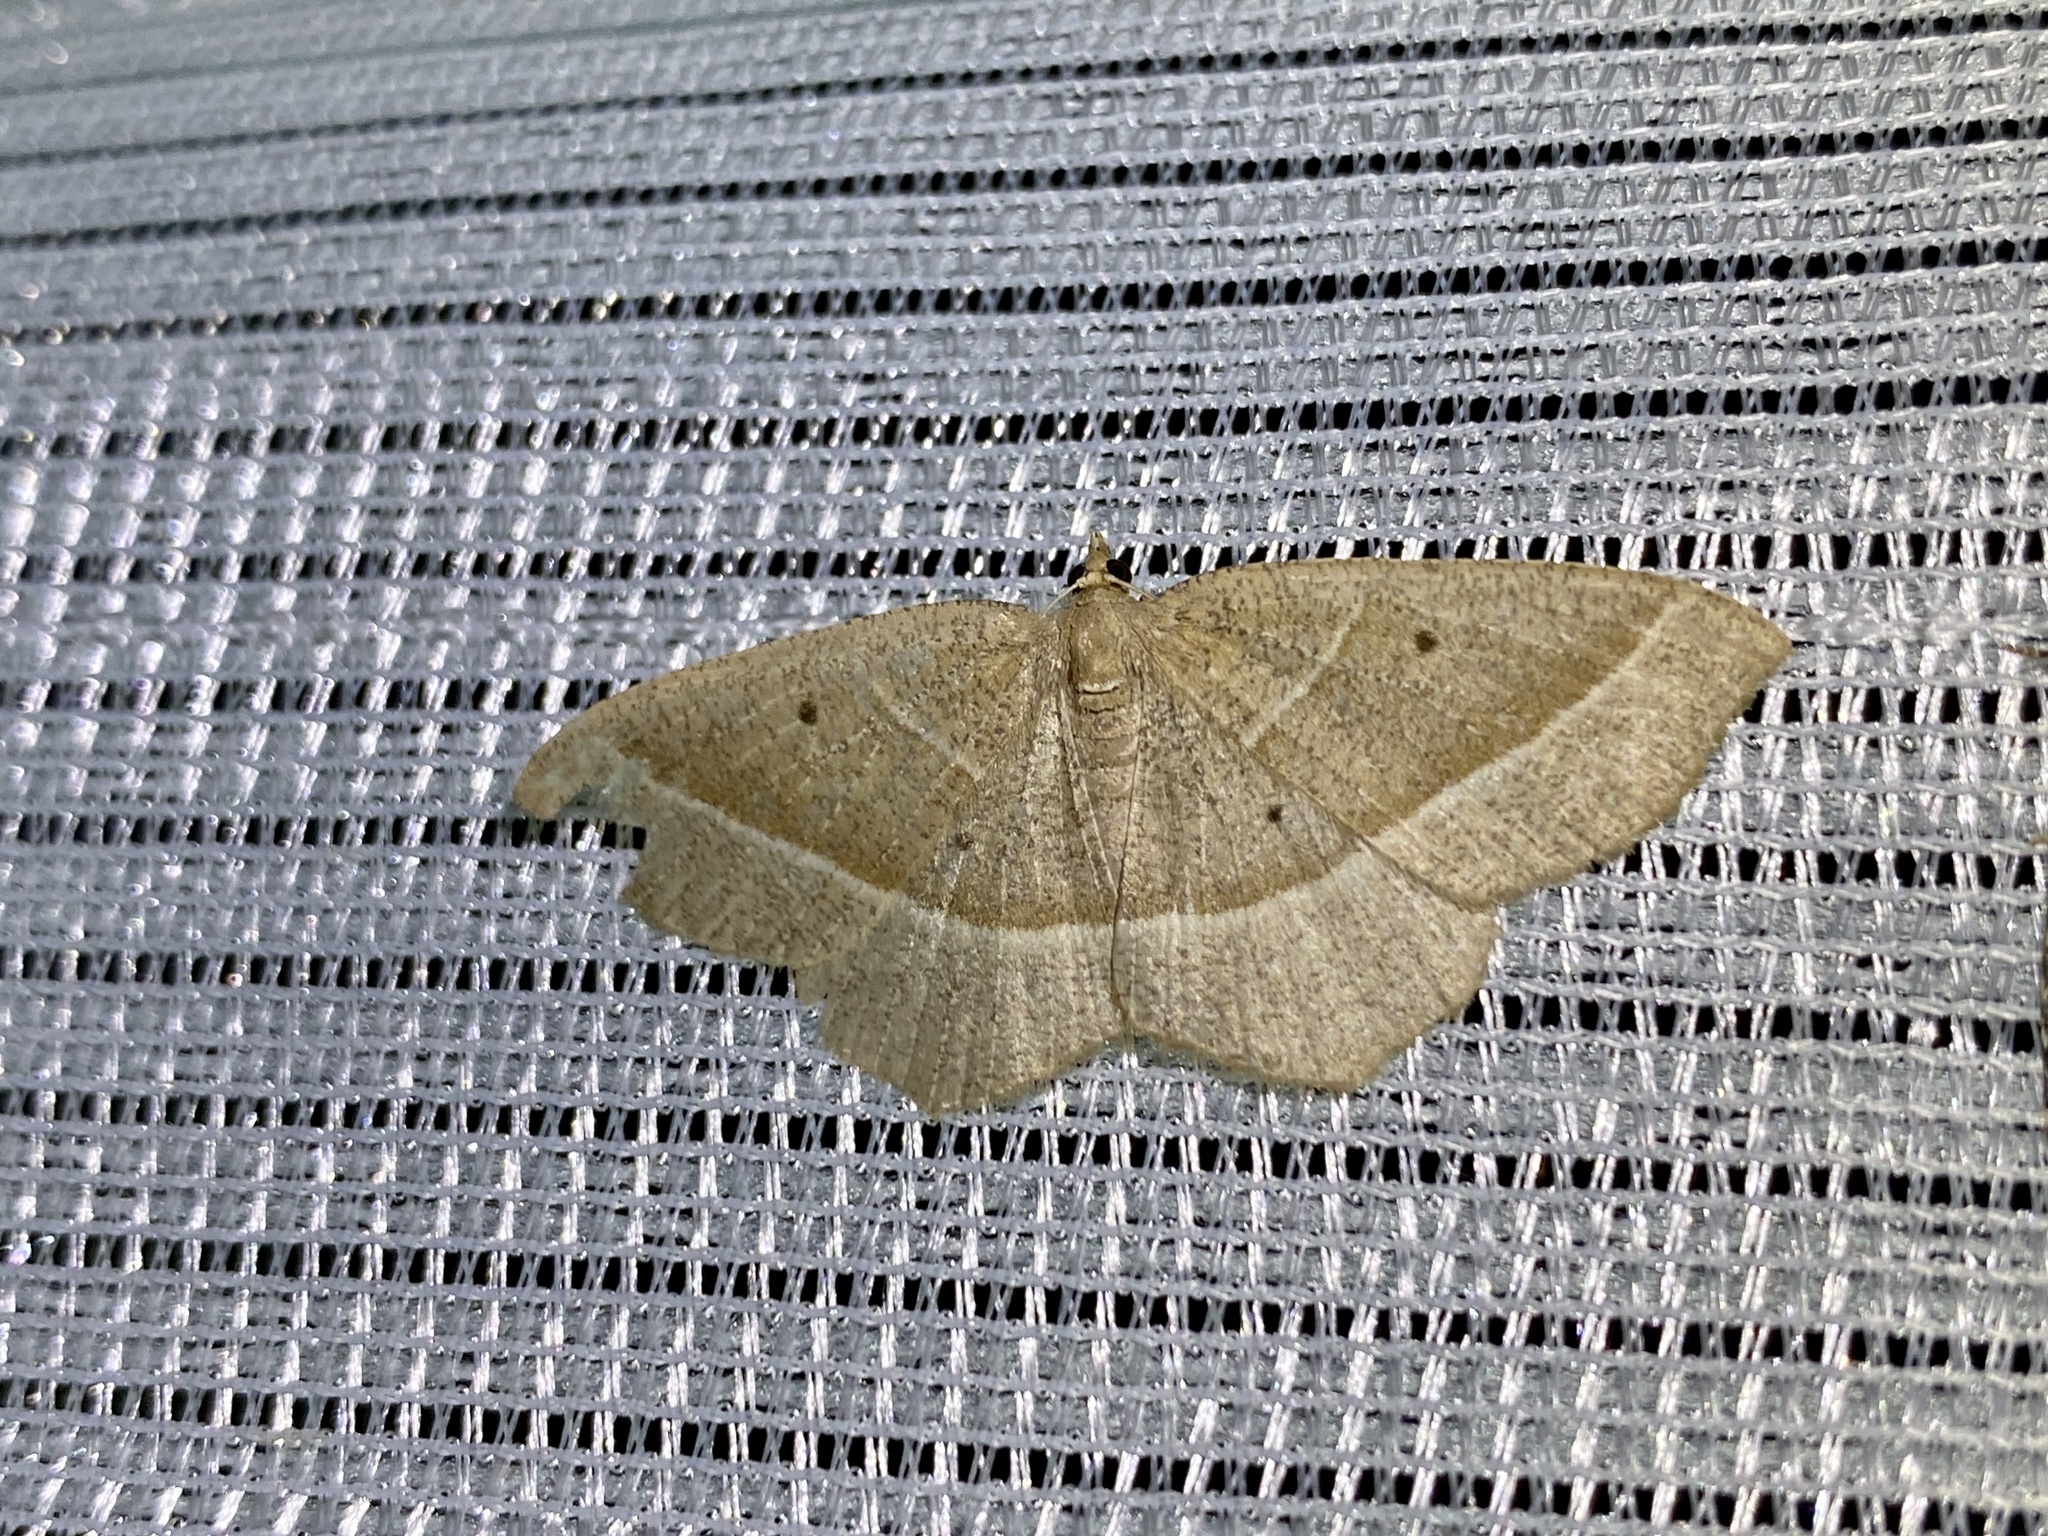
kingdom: Animalia
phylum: Arthropoda
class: Insecta
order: Lepidoptera
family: Geometridae
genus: Rhynchobapta
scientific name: Rhynchobapta cervinaria
